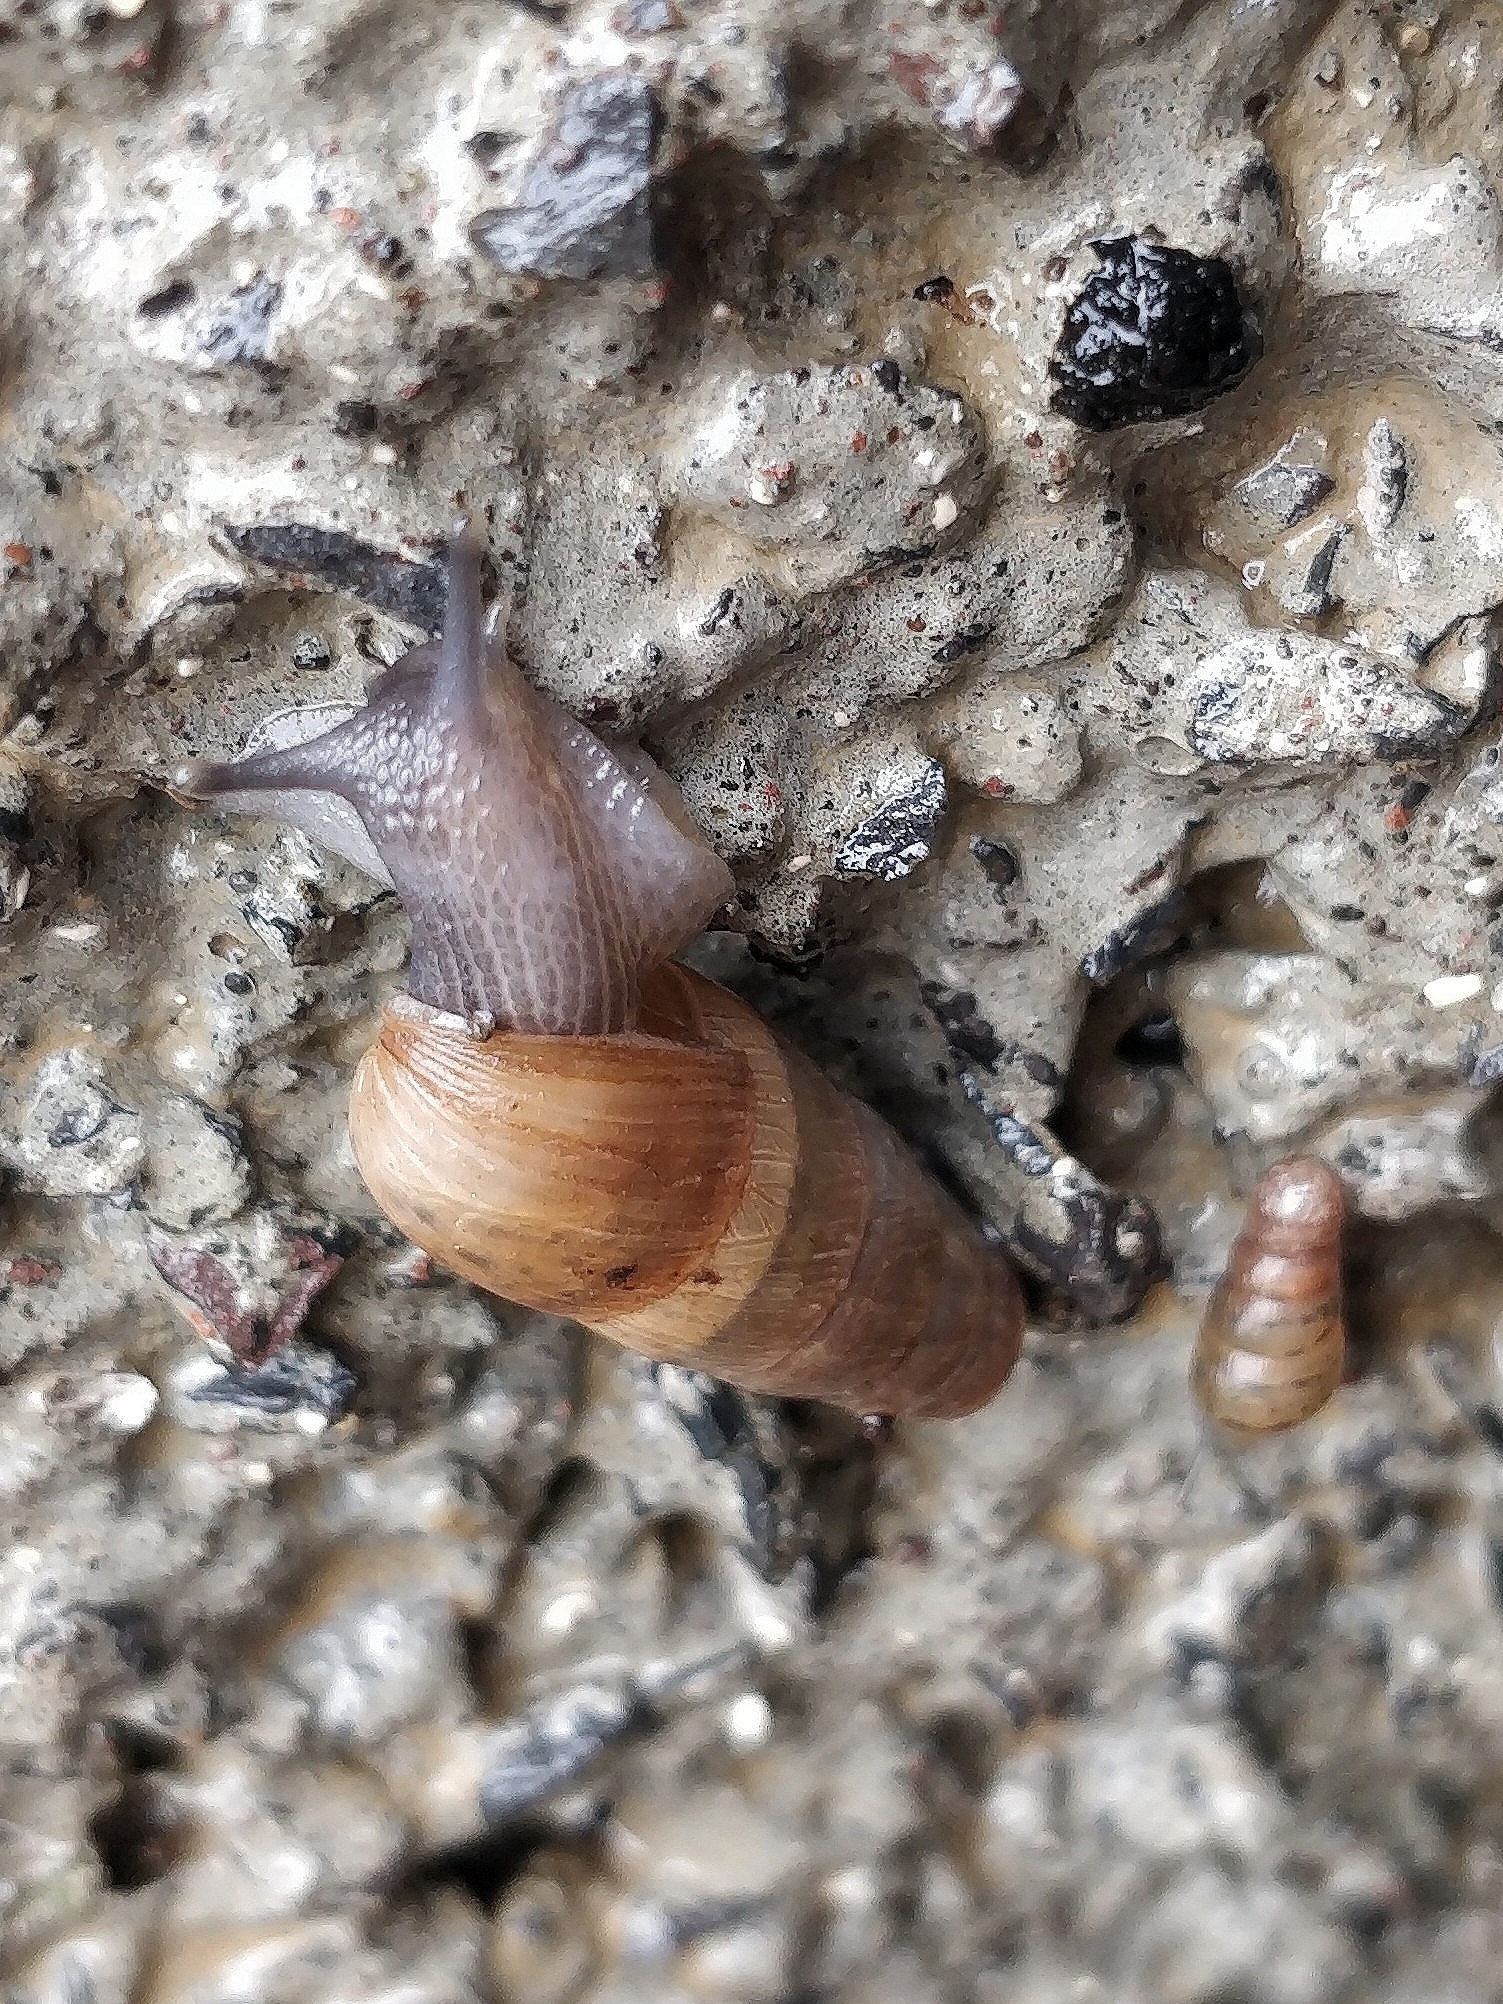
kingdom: Animalia
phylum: Mollusca
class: Gastropoda
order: Stylommatophora
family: Achatinidae
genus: Rumina
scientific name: Rumina decollata
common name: Decollate snail
